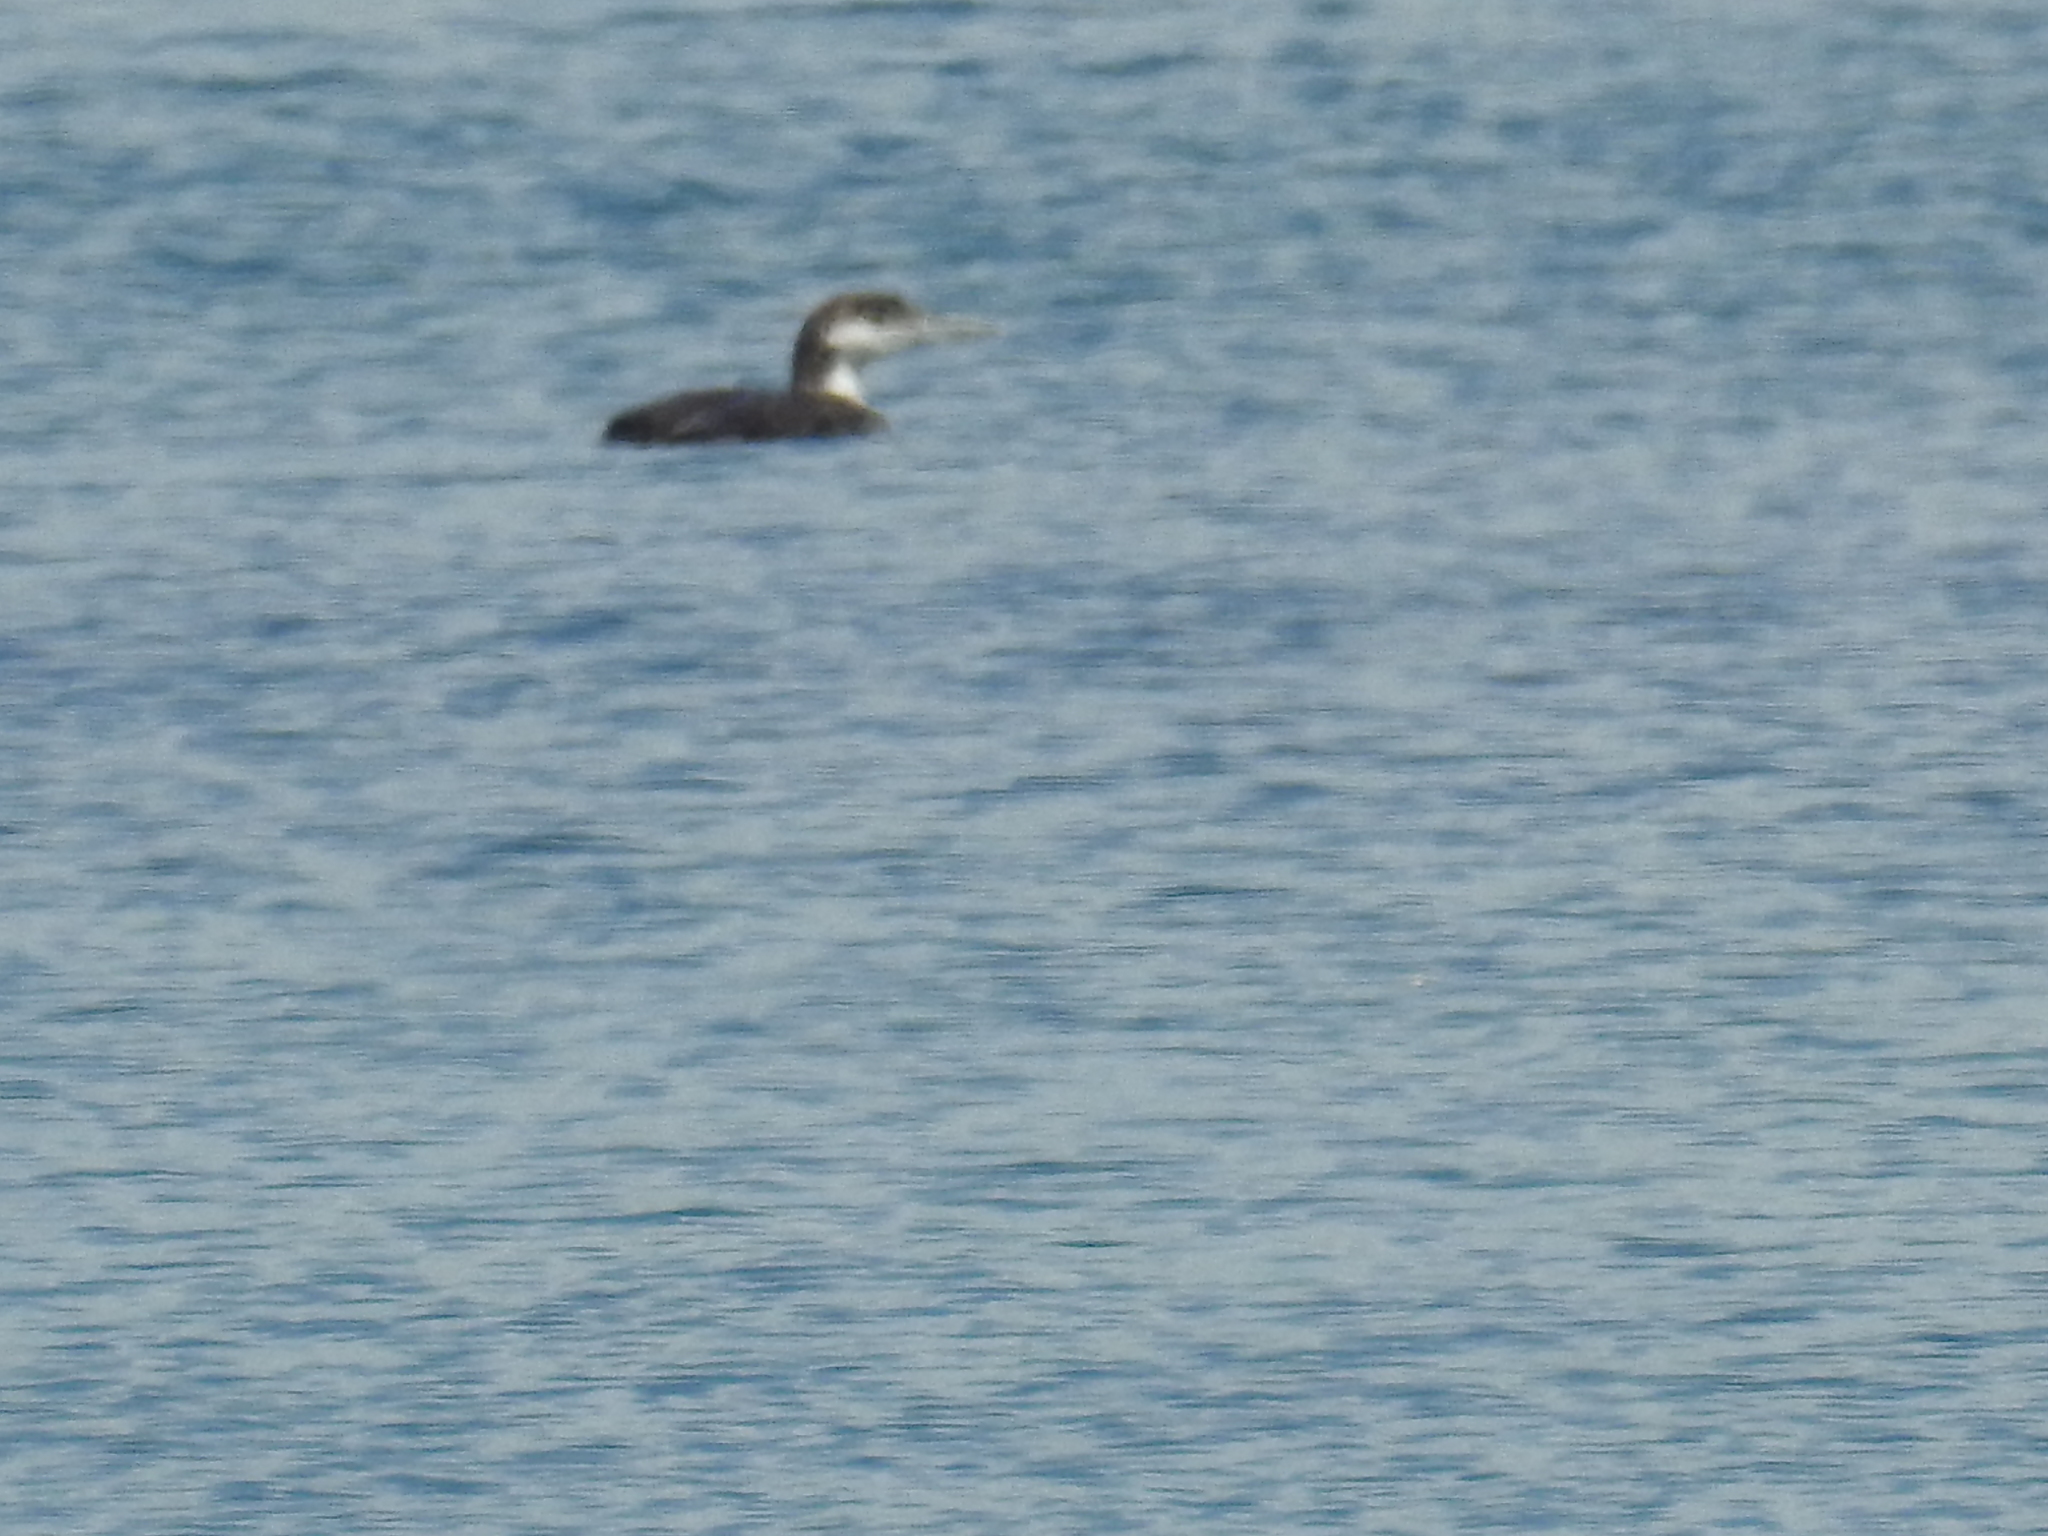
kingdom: Animalia
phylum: Chordata
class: Aves
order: Gaviiformes
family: Gaviidae
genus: Gavia
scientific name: Gavia immer
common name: Common loon
